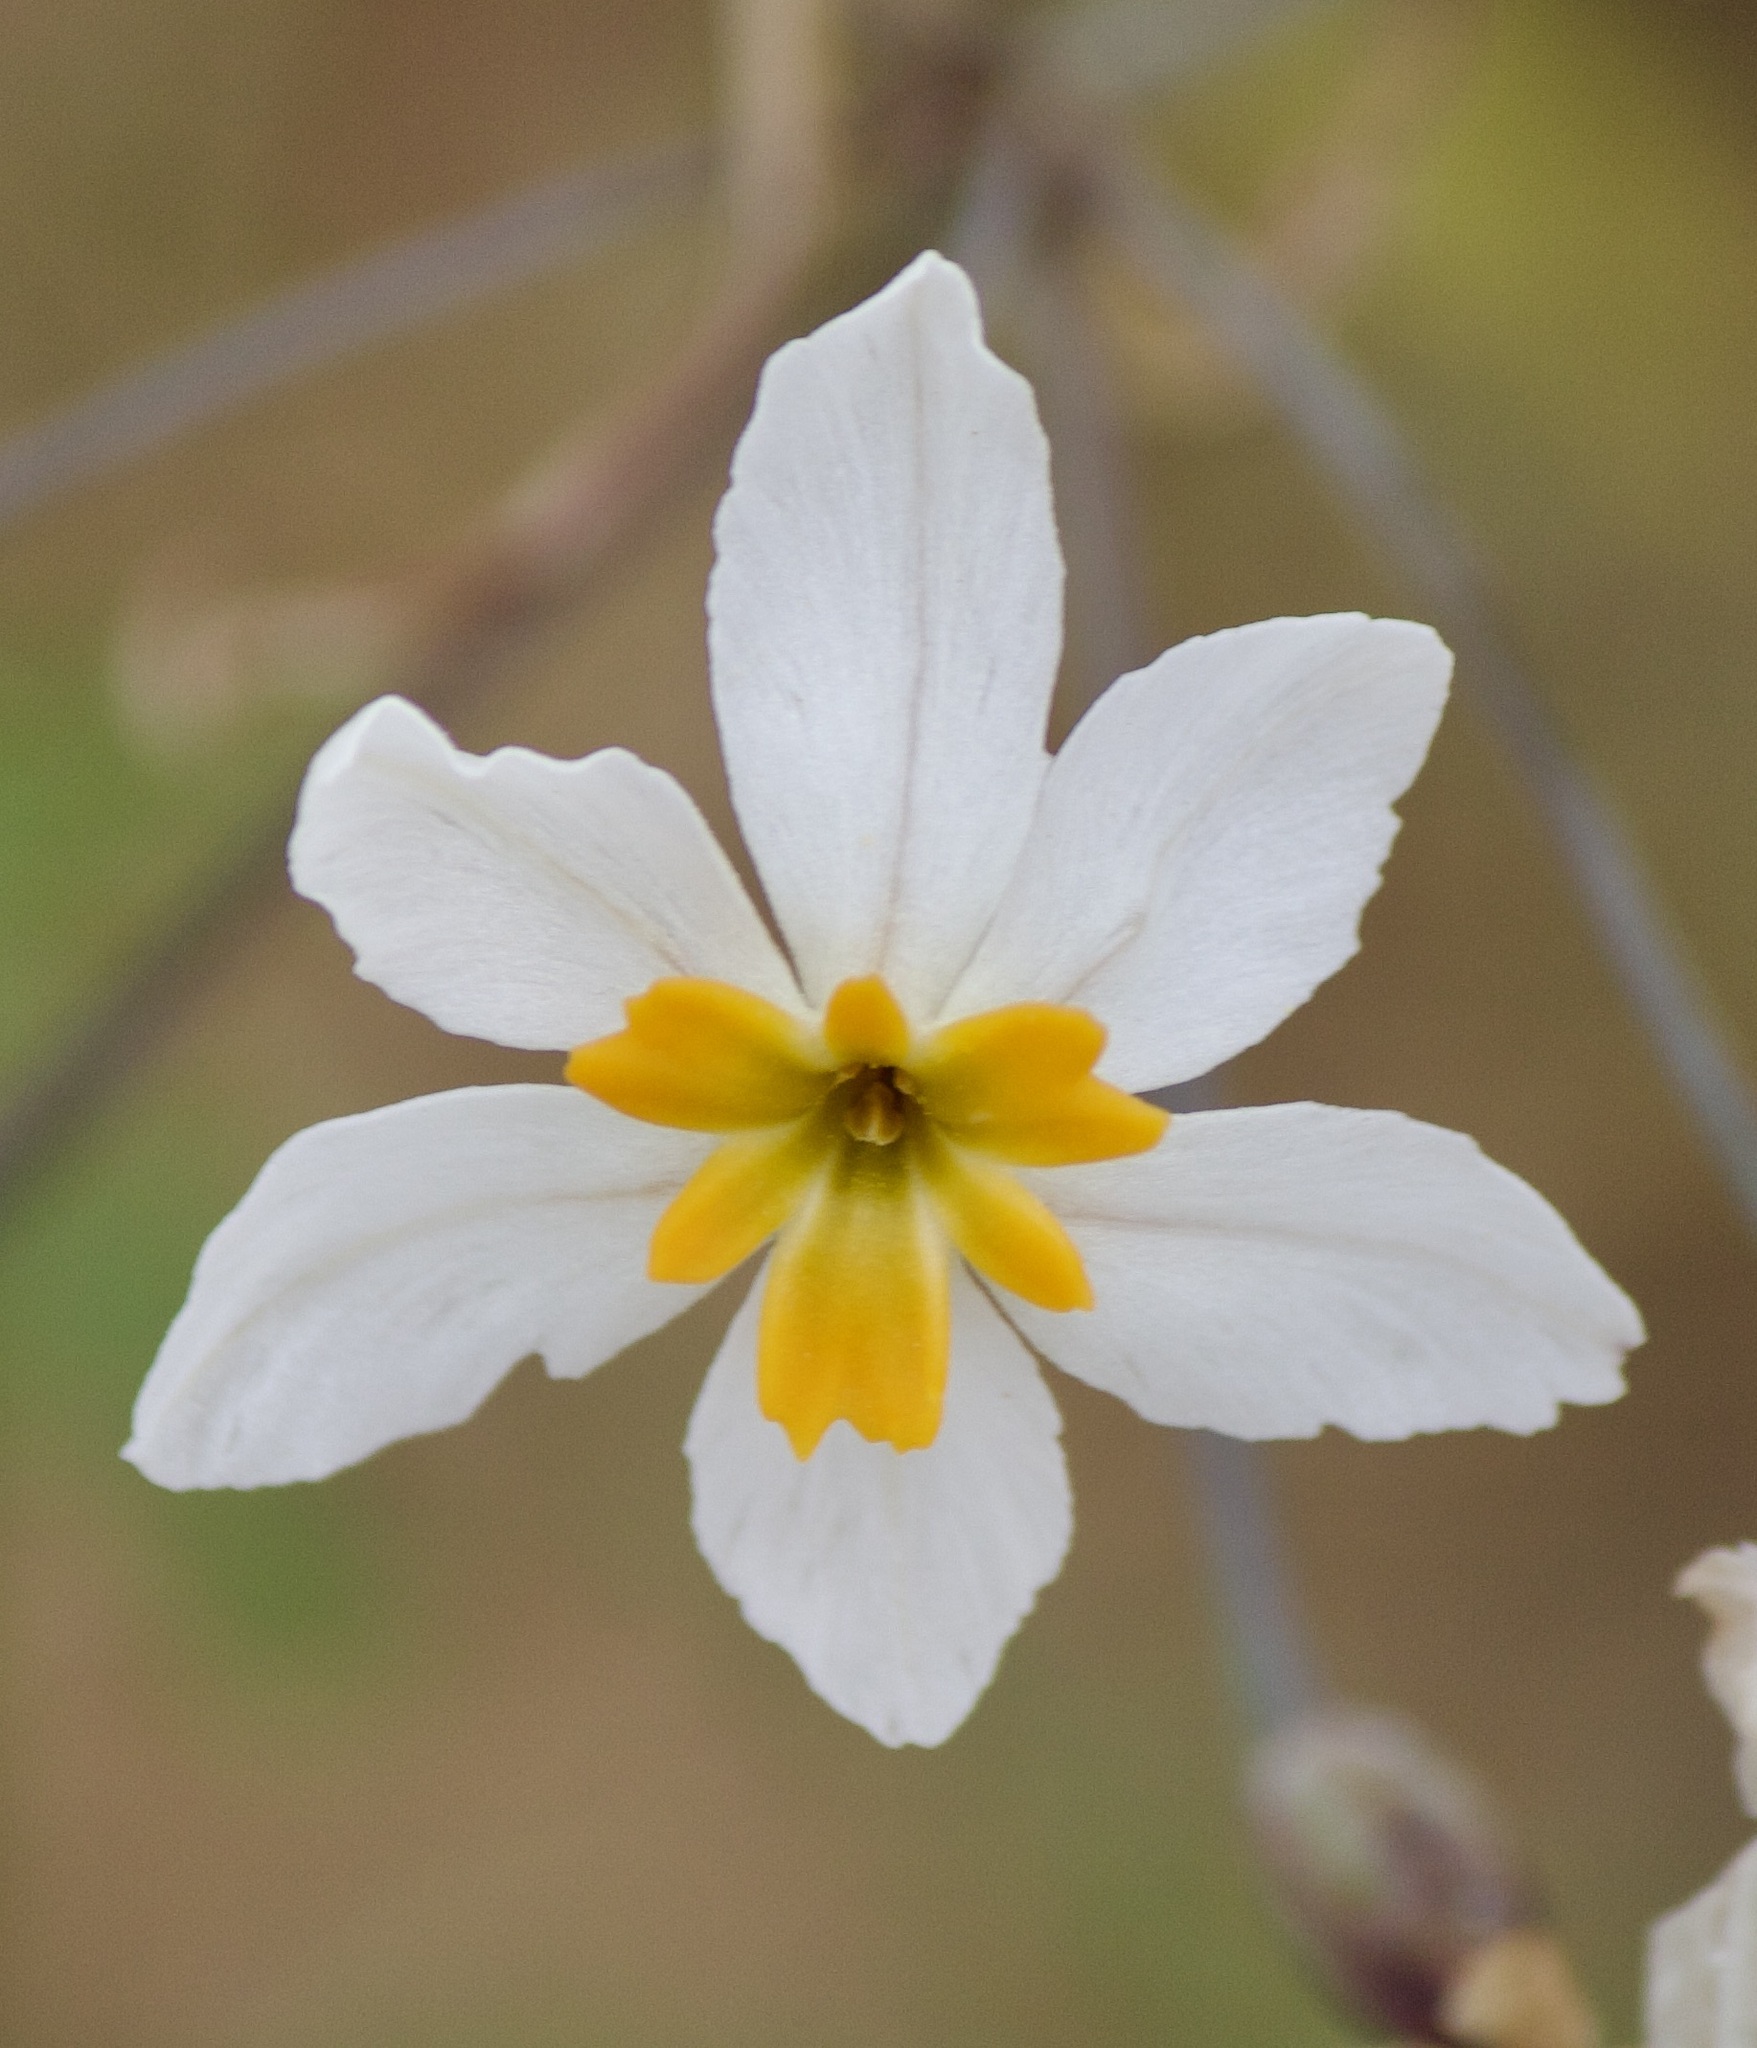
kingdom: Plantae
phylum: Tracheophyta
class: Liliopsida
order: Asparagales
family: Amaryllidaceae
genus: Leucocoryne
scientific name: Leucocoryne coronata
